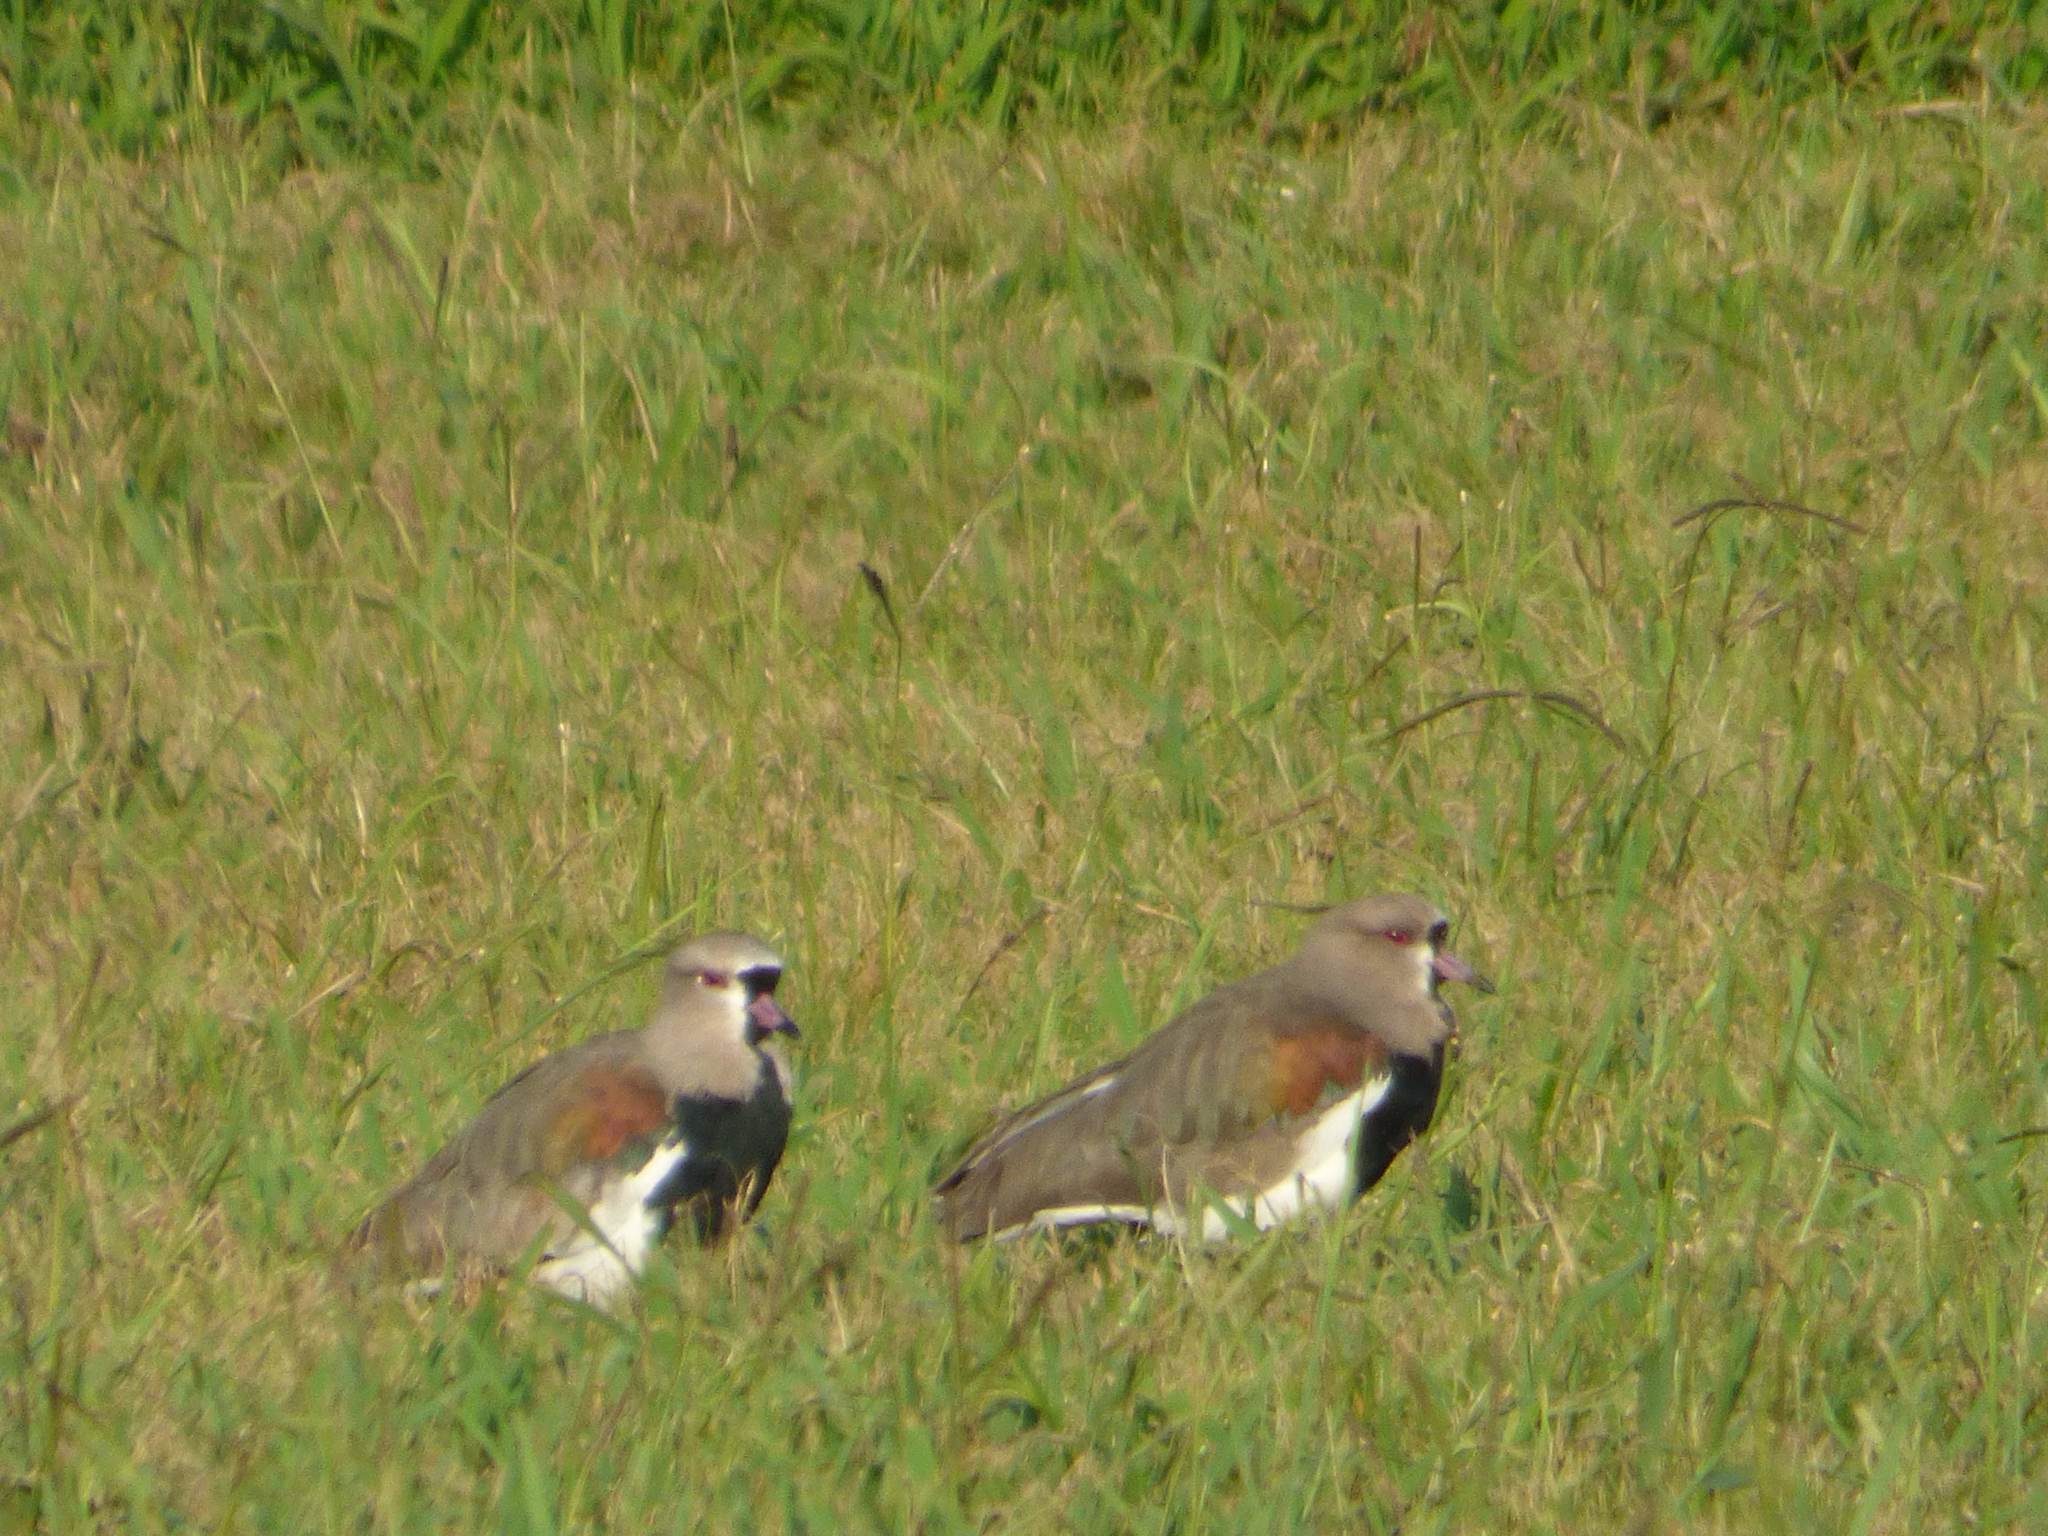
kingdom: Animalia
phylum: Chordata
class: Aves
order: Charadriiformes
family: Charadriidae
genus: Vanellus
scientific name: Vanellus chilensis
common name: Southern lapwing
